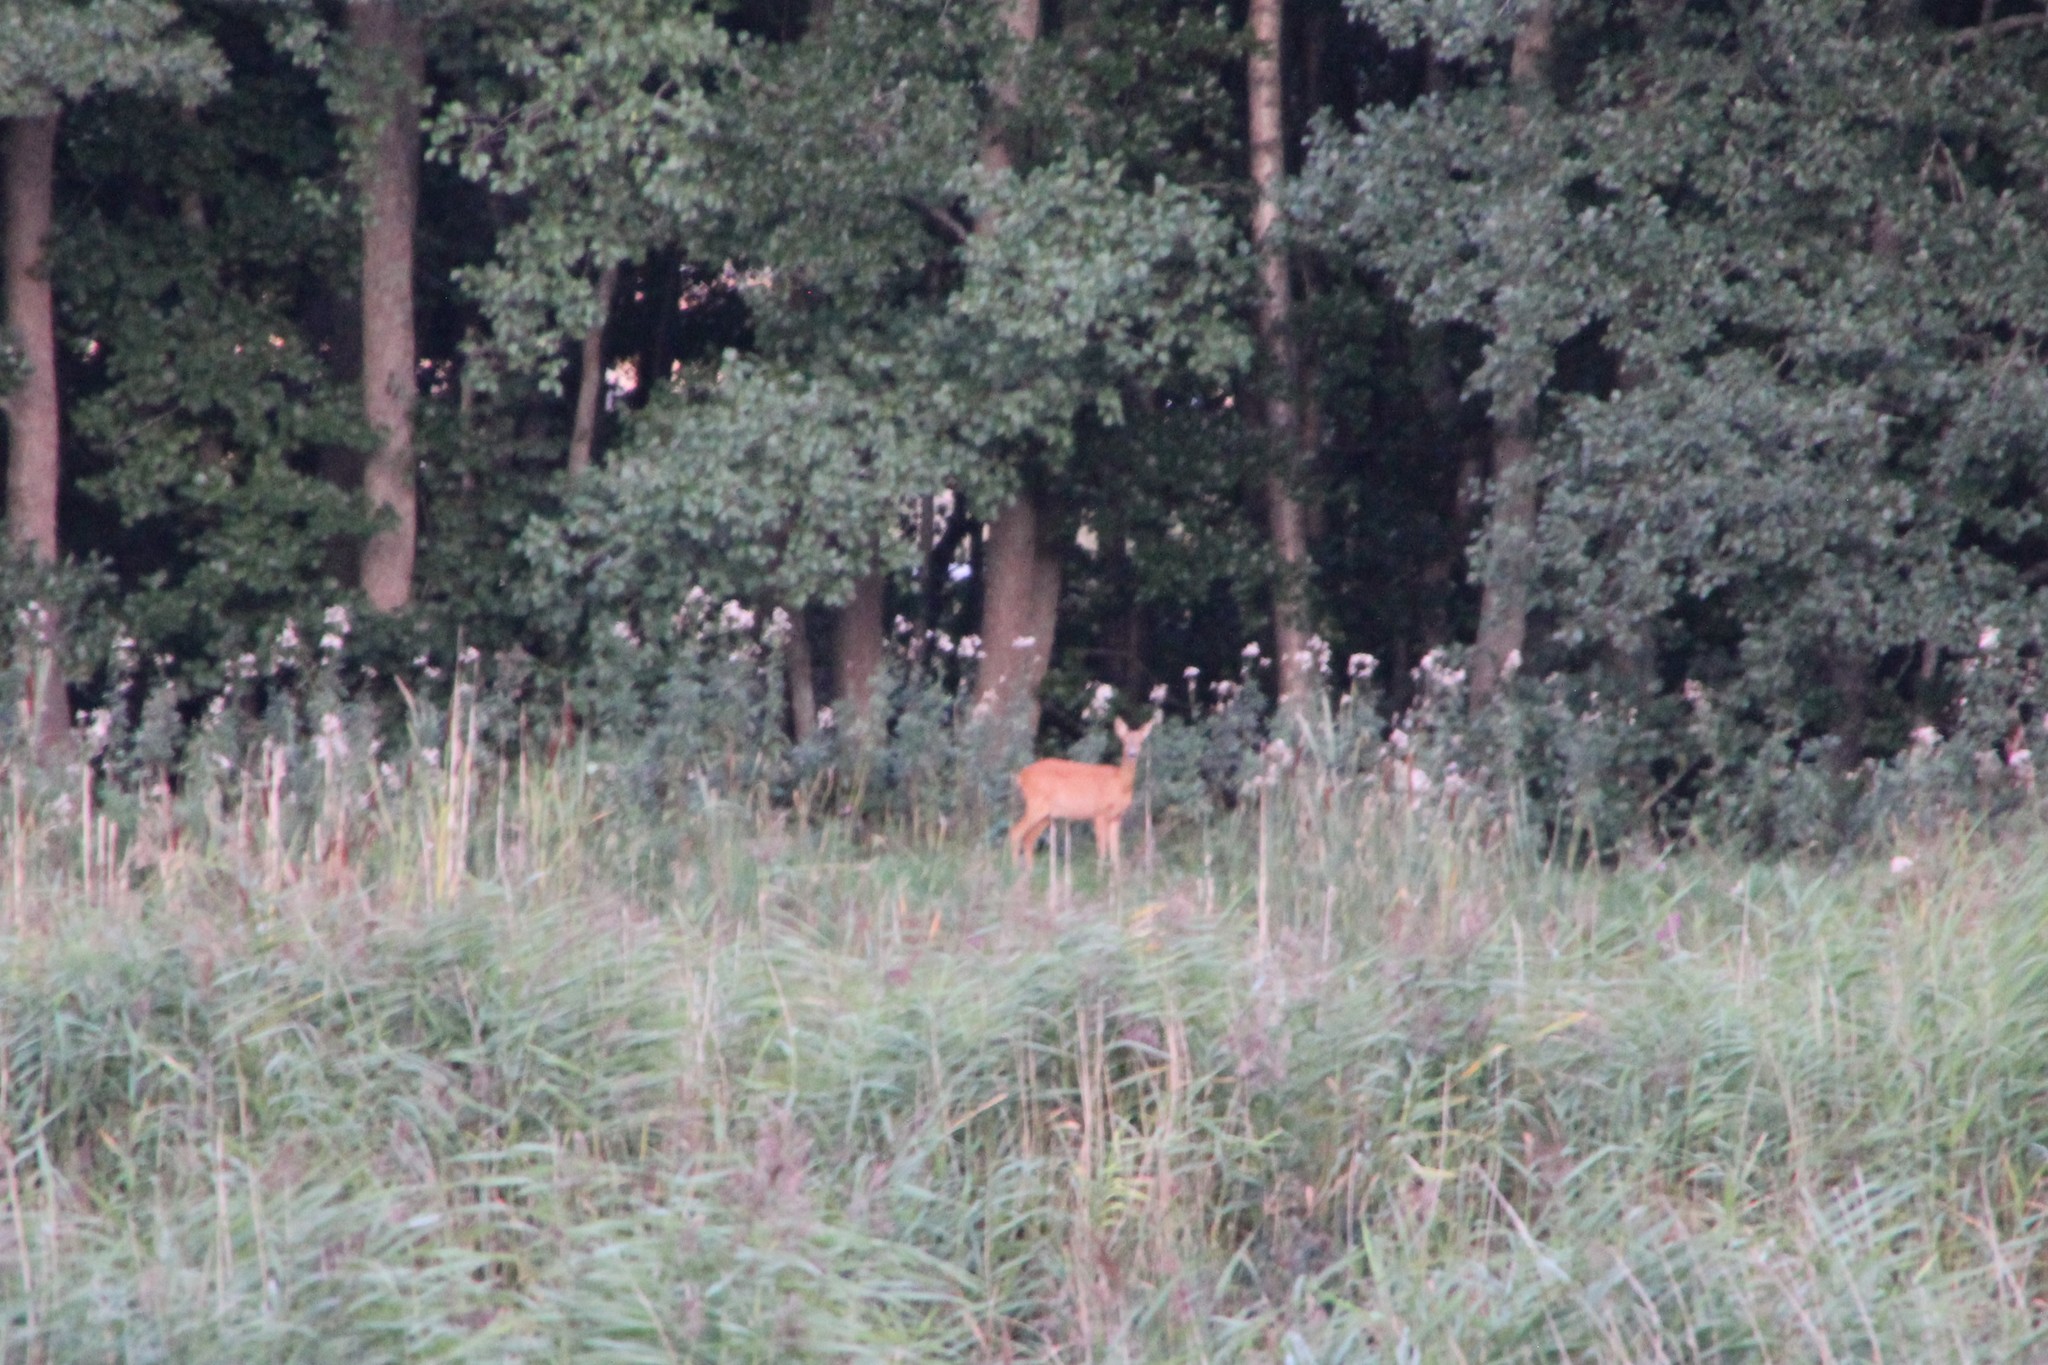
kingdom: Animalia
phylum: Chordata
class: Mammalia
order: Artiodactyla
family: Cervidae
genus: Capreolus
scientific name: Capreolus capreolus
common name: Western roe deer
